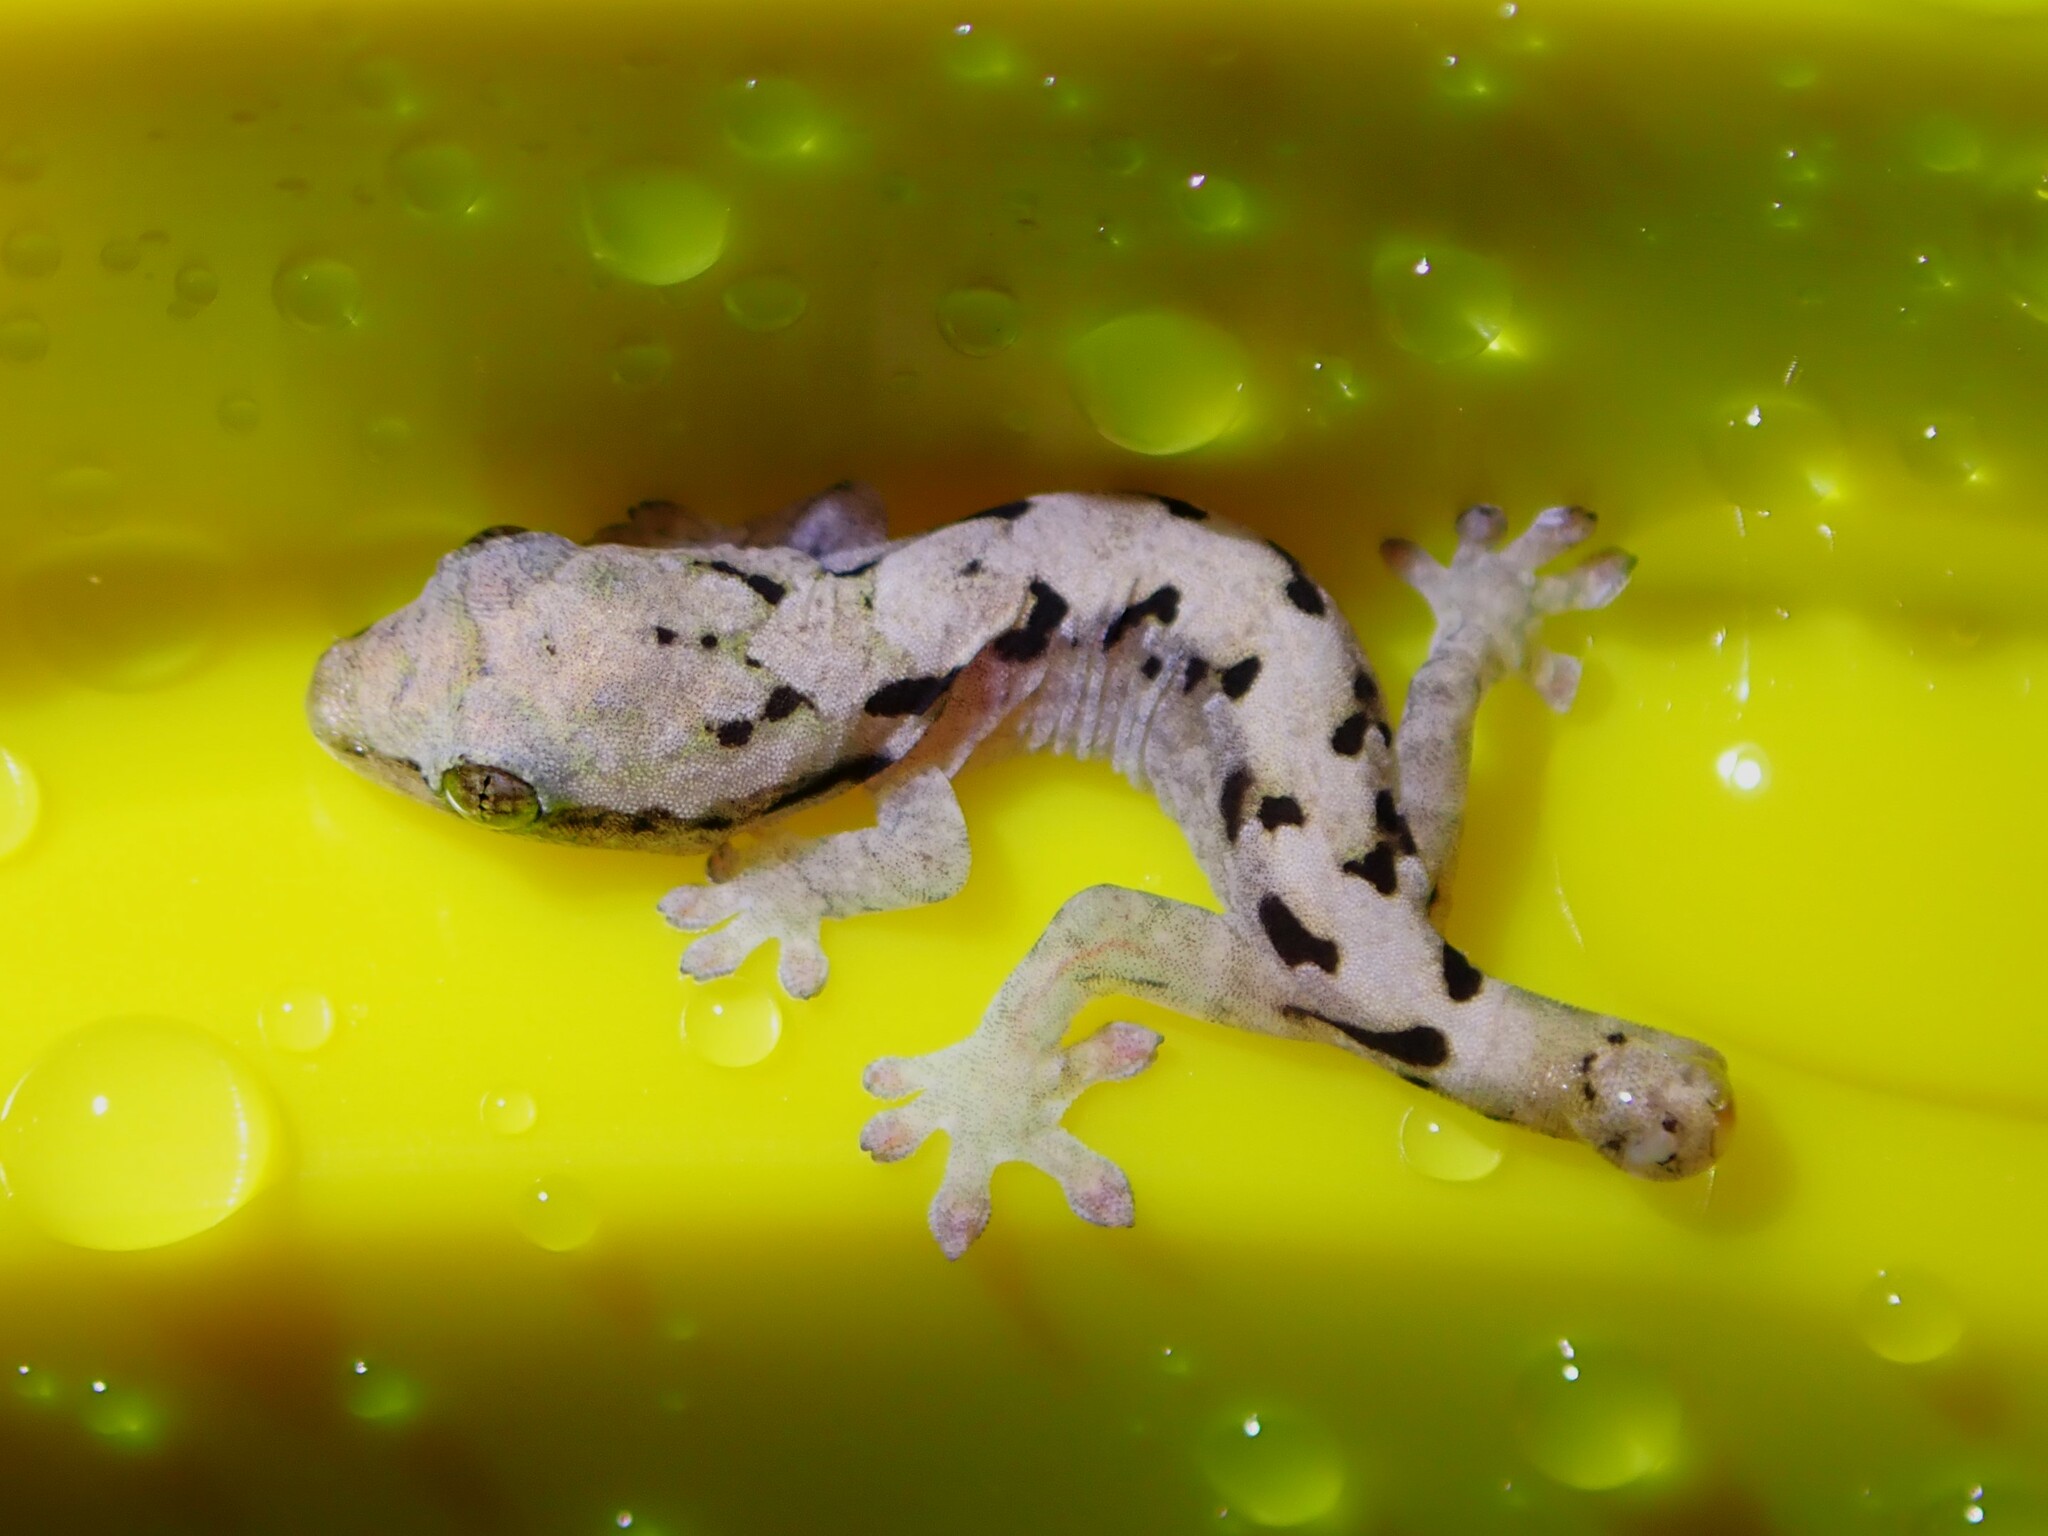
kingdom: Animalia
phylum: Chordata
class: Squamata
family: Gekkonidae
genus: Lepidodactylus
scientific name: Lepidodactylus lugubris
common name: Mourning gecko
